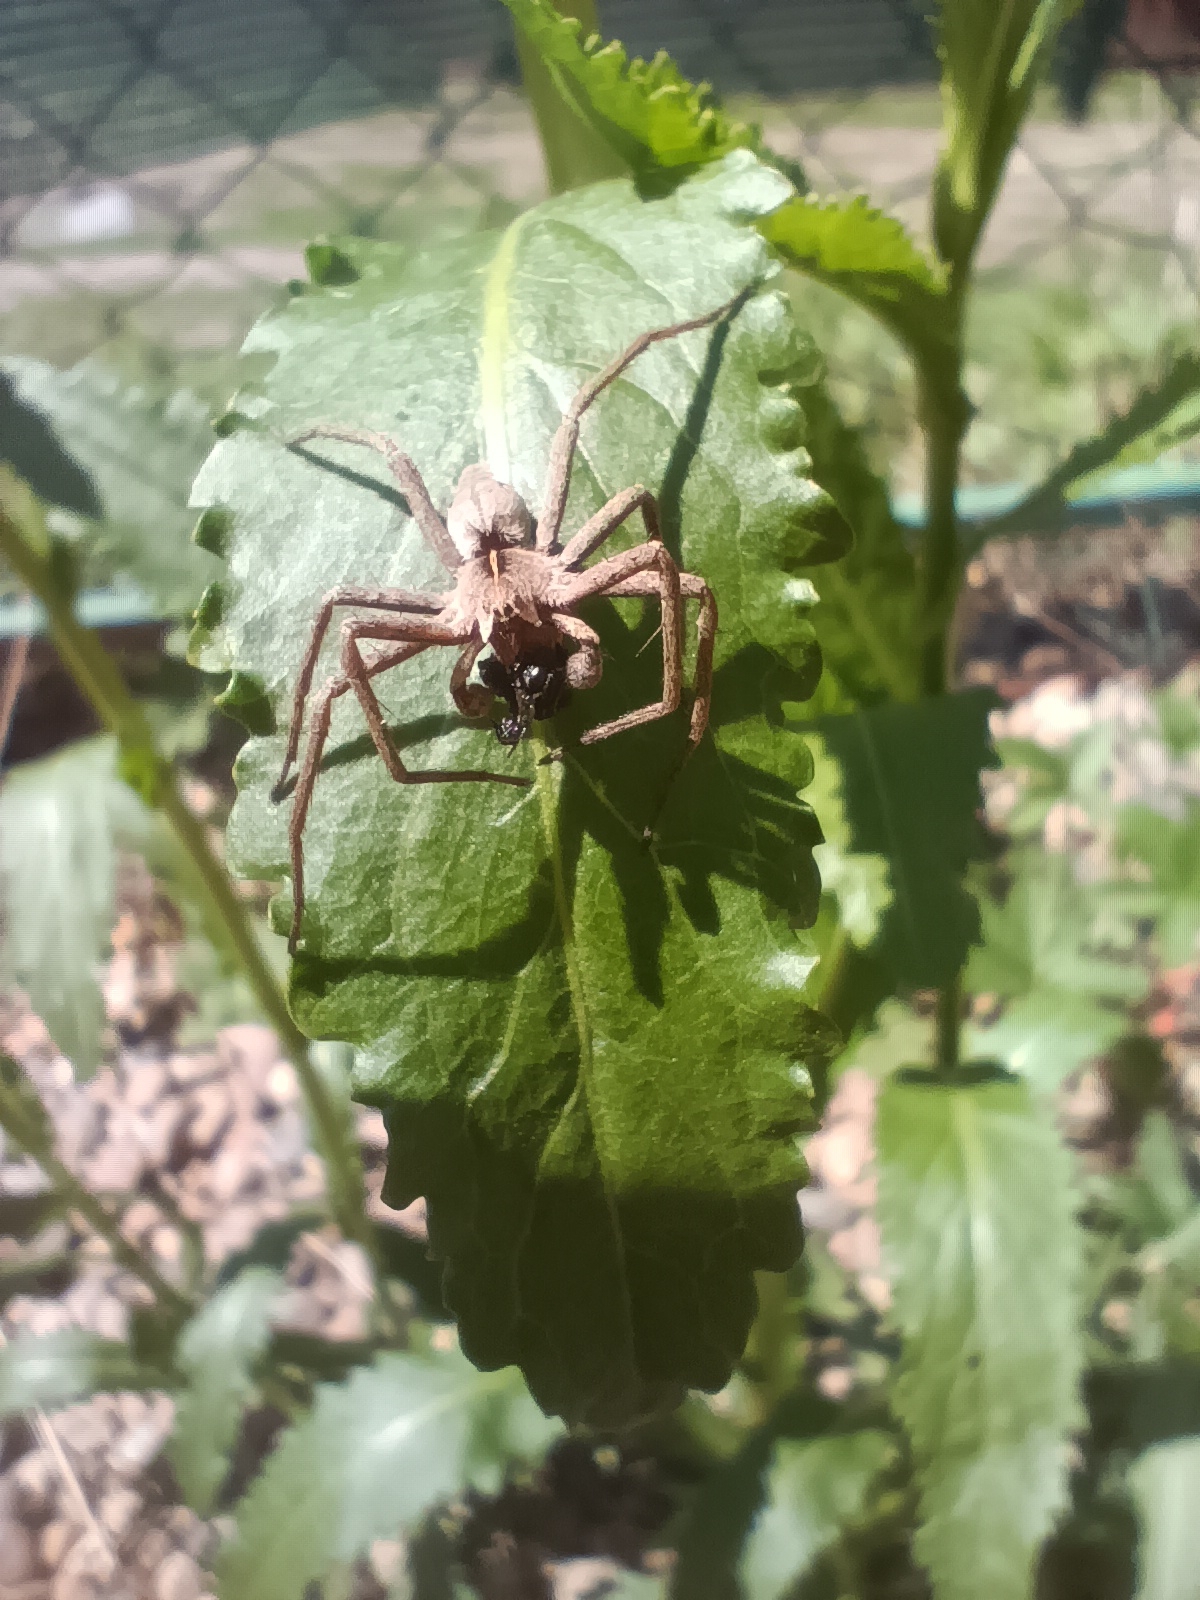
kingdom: Animalia
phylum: Arthropoda
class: Arachnida
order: Araneae
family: Pisauridae
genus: Pisaura
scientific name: Pisaura
